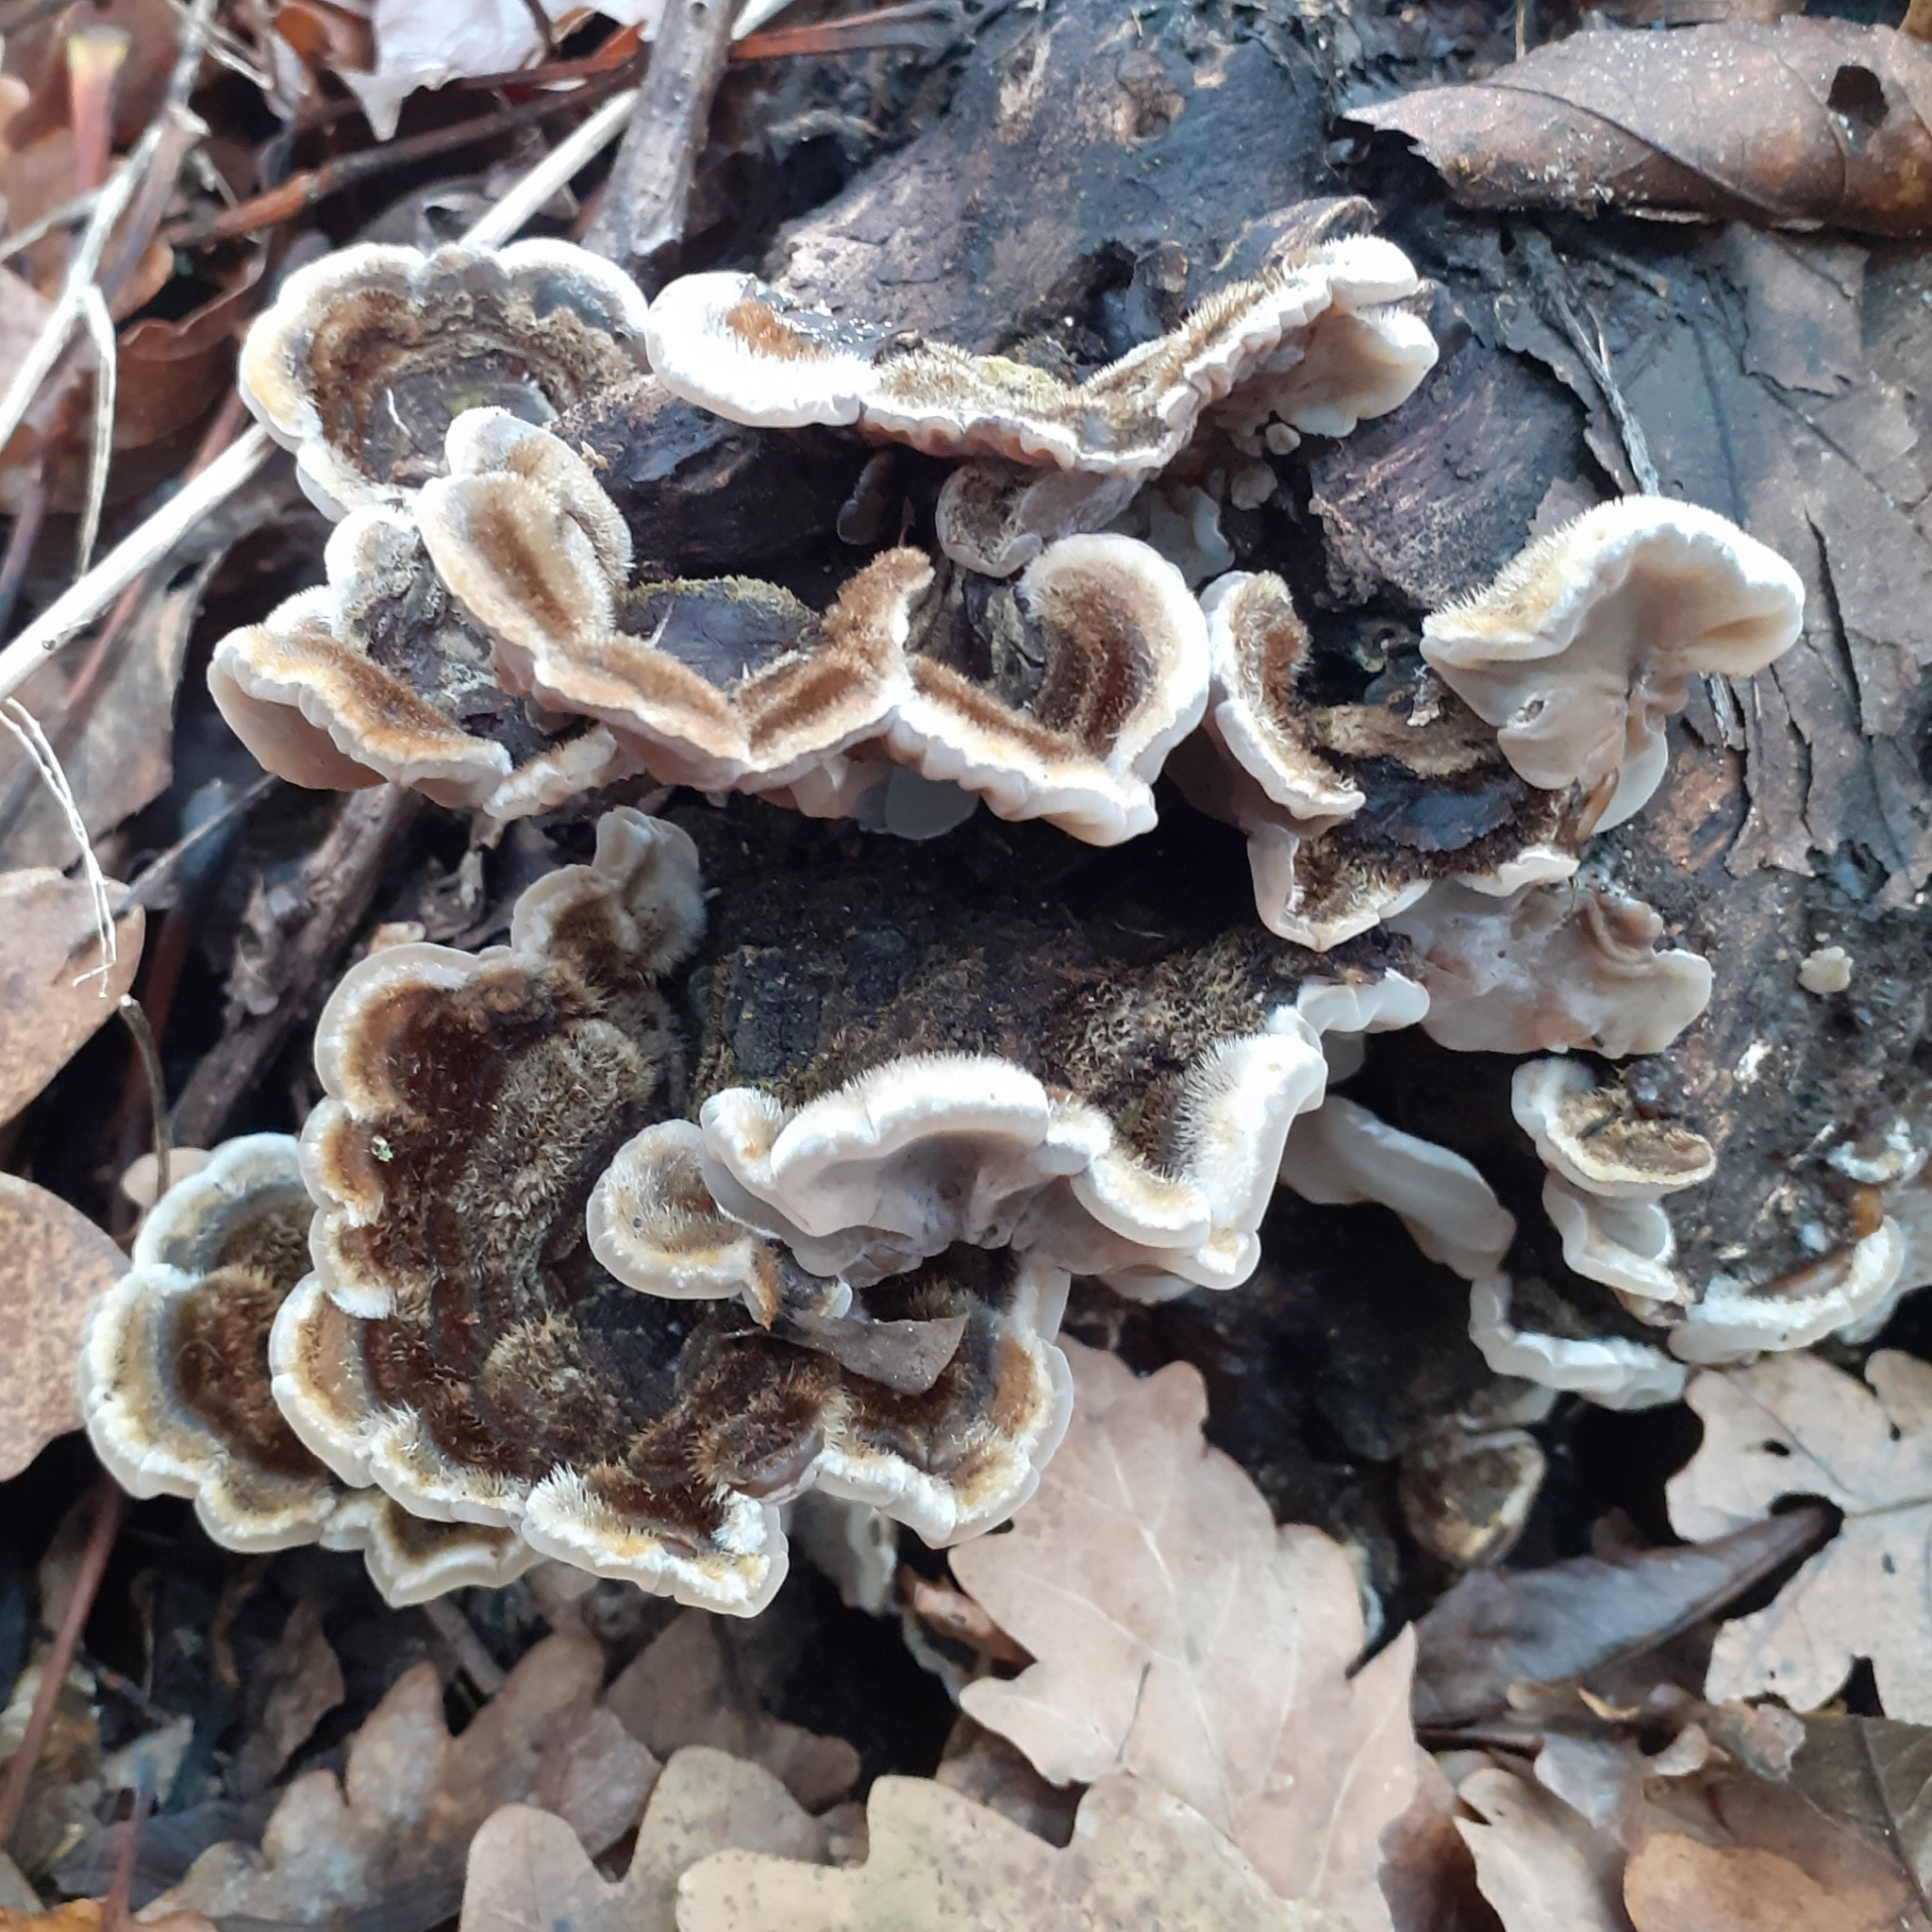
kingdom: Fungi
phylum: Basidiomycota
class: Agaricomycetes
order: Auriculariales
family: Auriculariaceae
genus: Auricularia
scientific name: Auricularia mesenterica
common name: Tripe fungus
